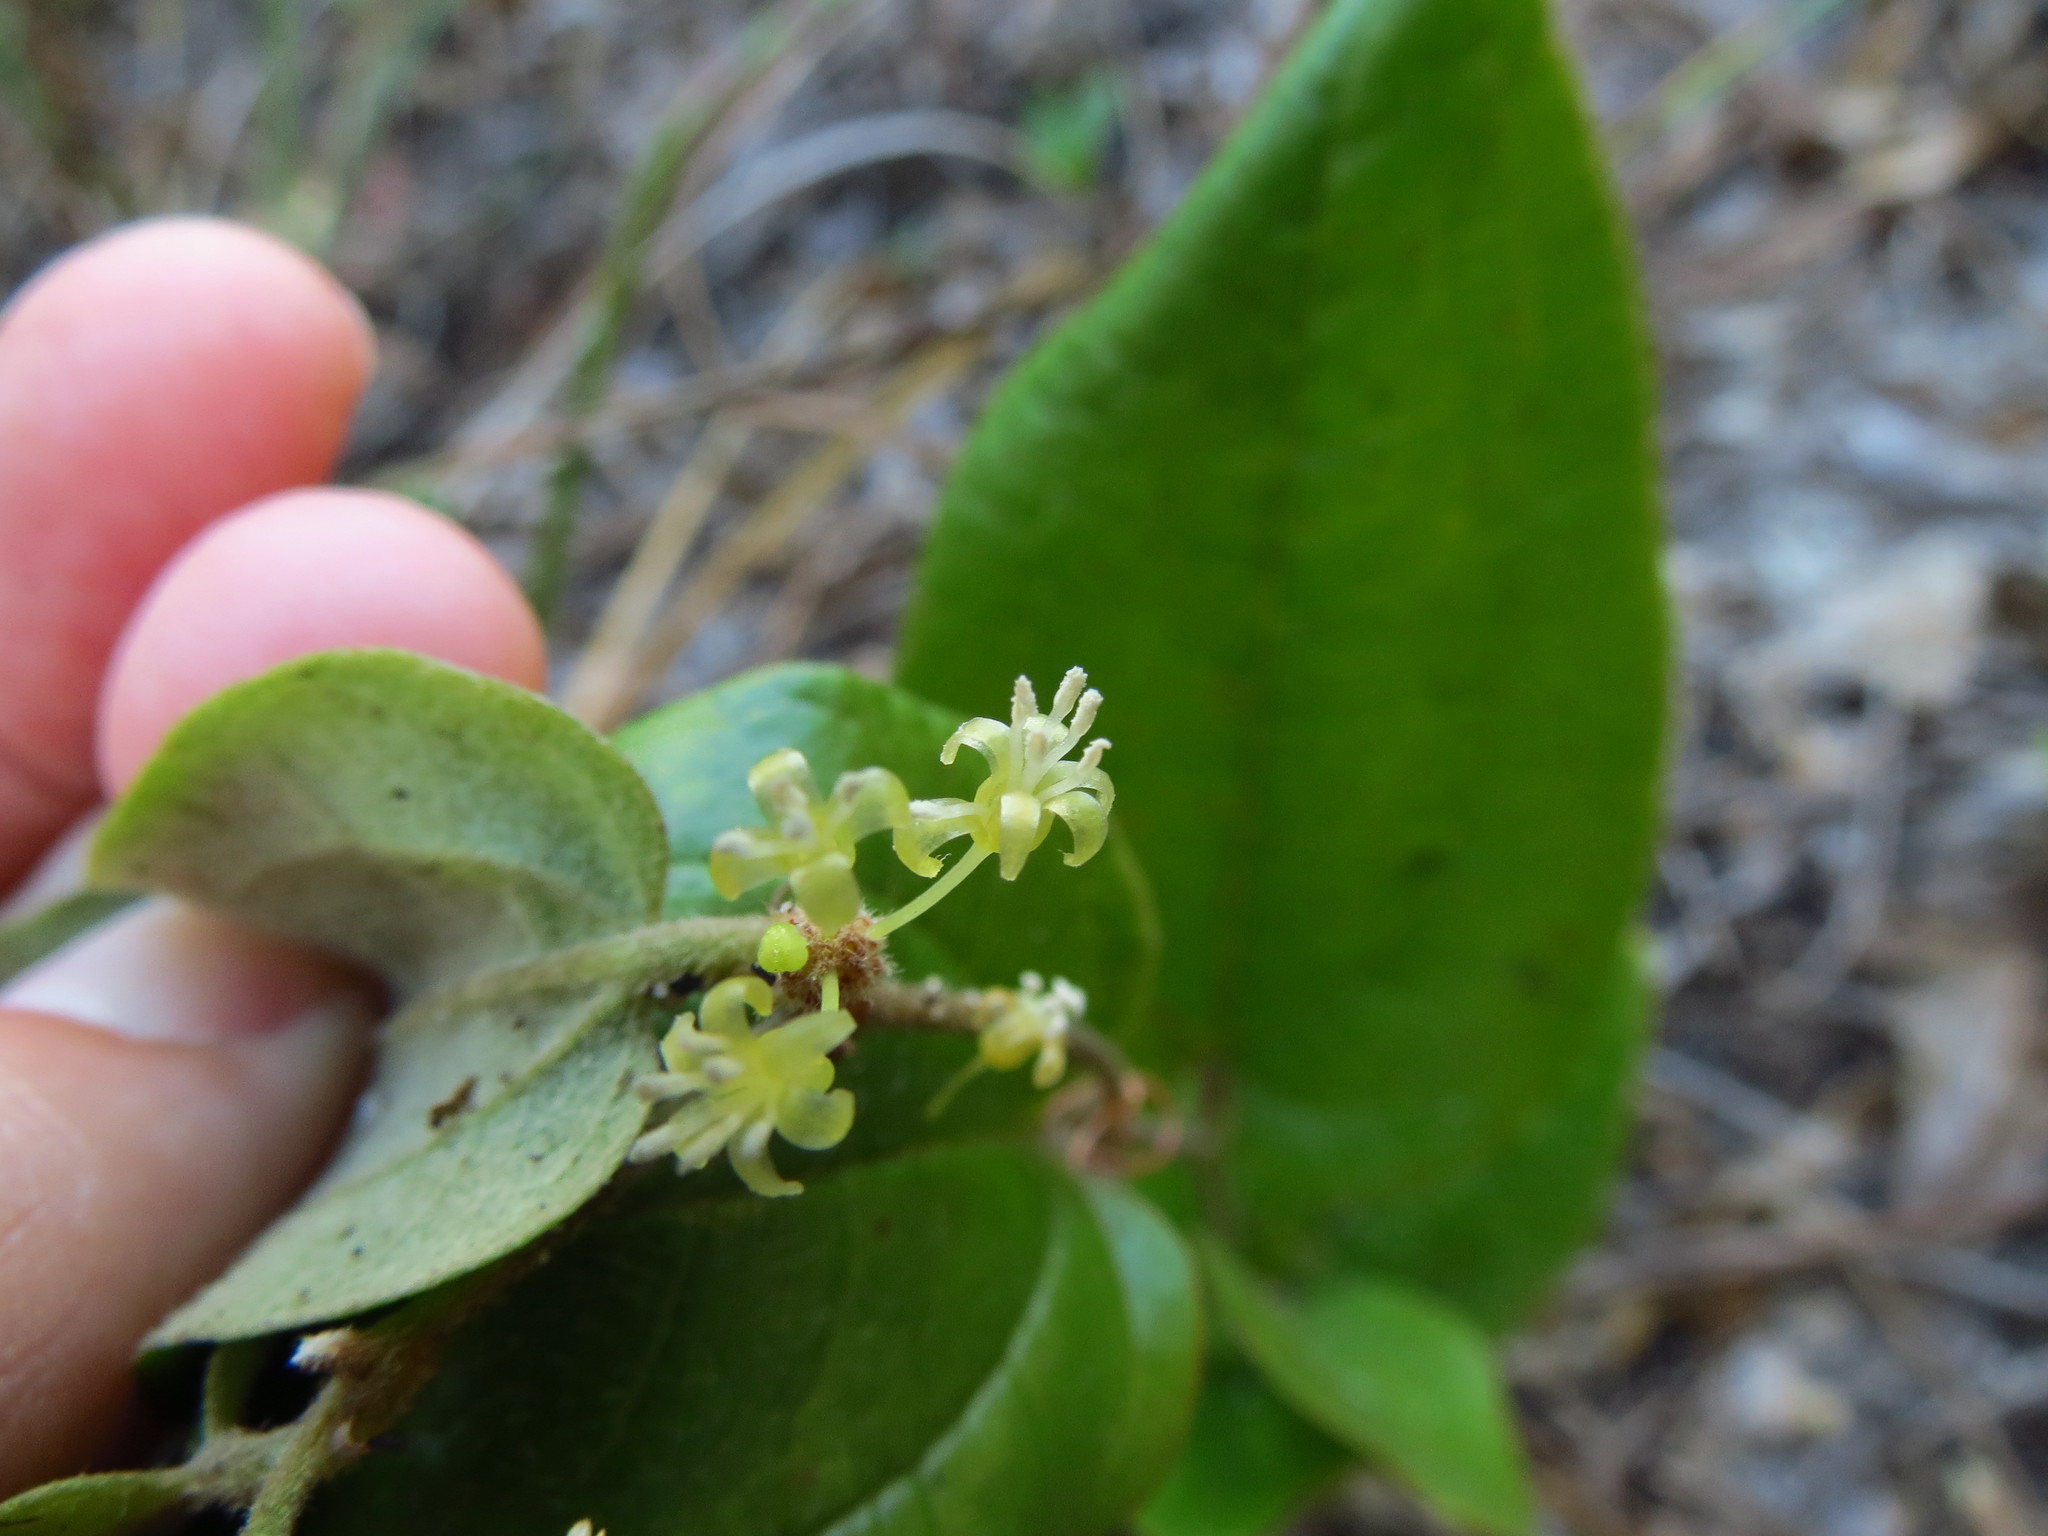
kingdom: Plantae
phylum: Tracheophyta
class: Liliopsida
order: Liliales
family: Smilacaceae
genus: Smilax
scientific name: Smilax pumila
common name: Sarsaparilla-vine
